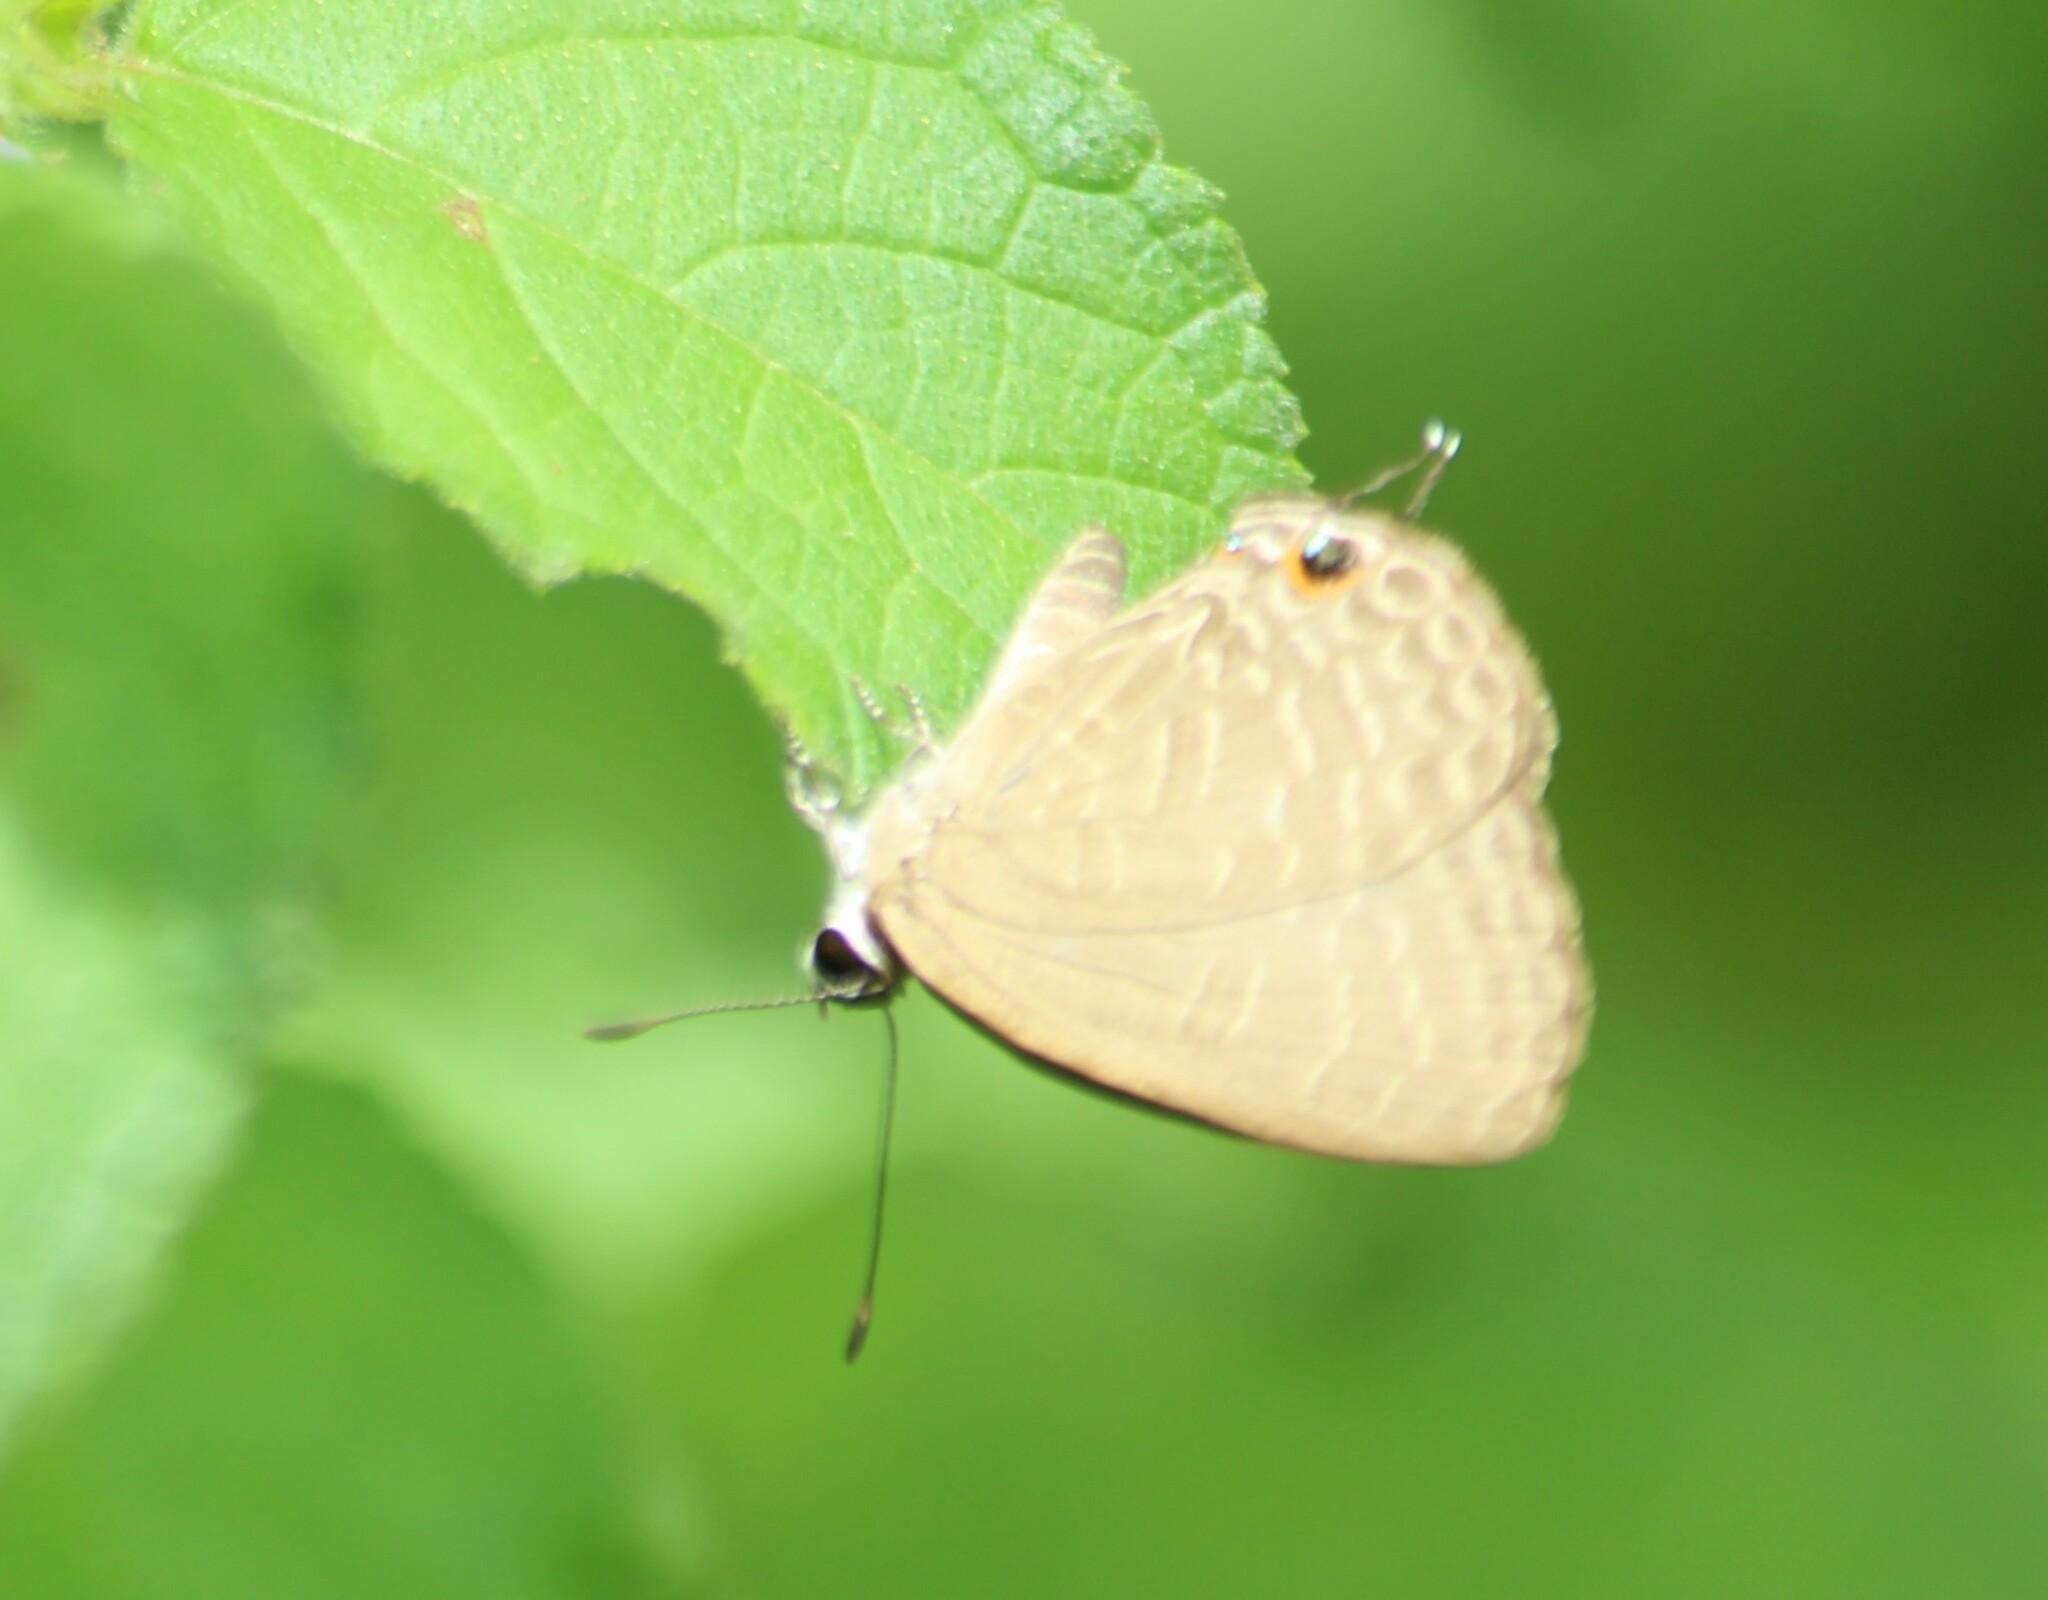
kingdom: Animalia
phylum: Arthropoda
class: Insecta
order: Lepidoptera
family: Lycaenidae
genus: Jamides
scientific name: Jamides bochus
